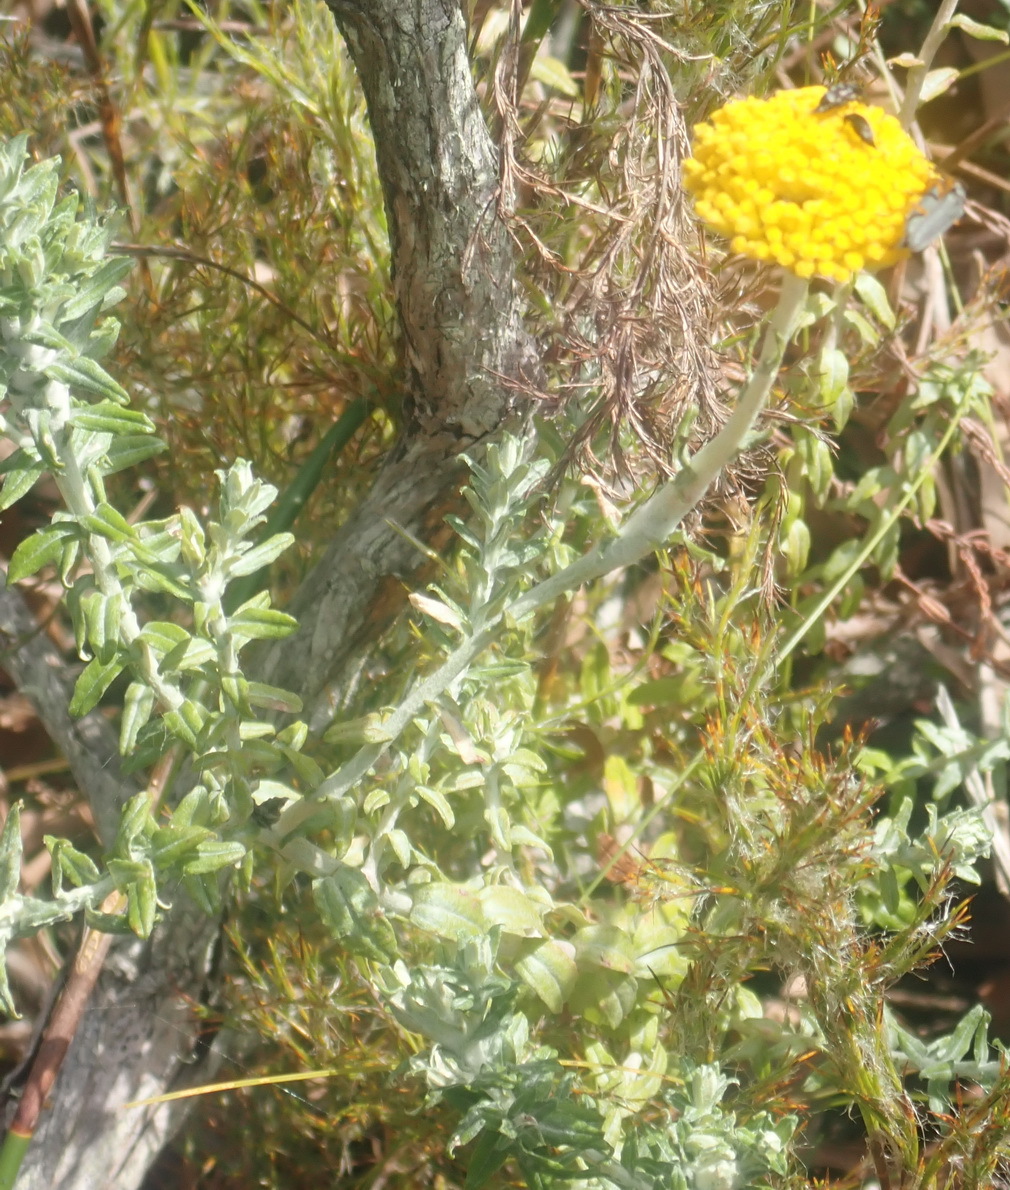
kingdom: Plantae
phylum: Tracheophyta
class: Magnoliopsida
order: Asterales
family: Asteraceae
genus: Helichrysum
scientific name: Helichrysum cymosum
